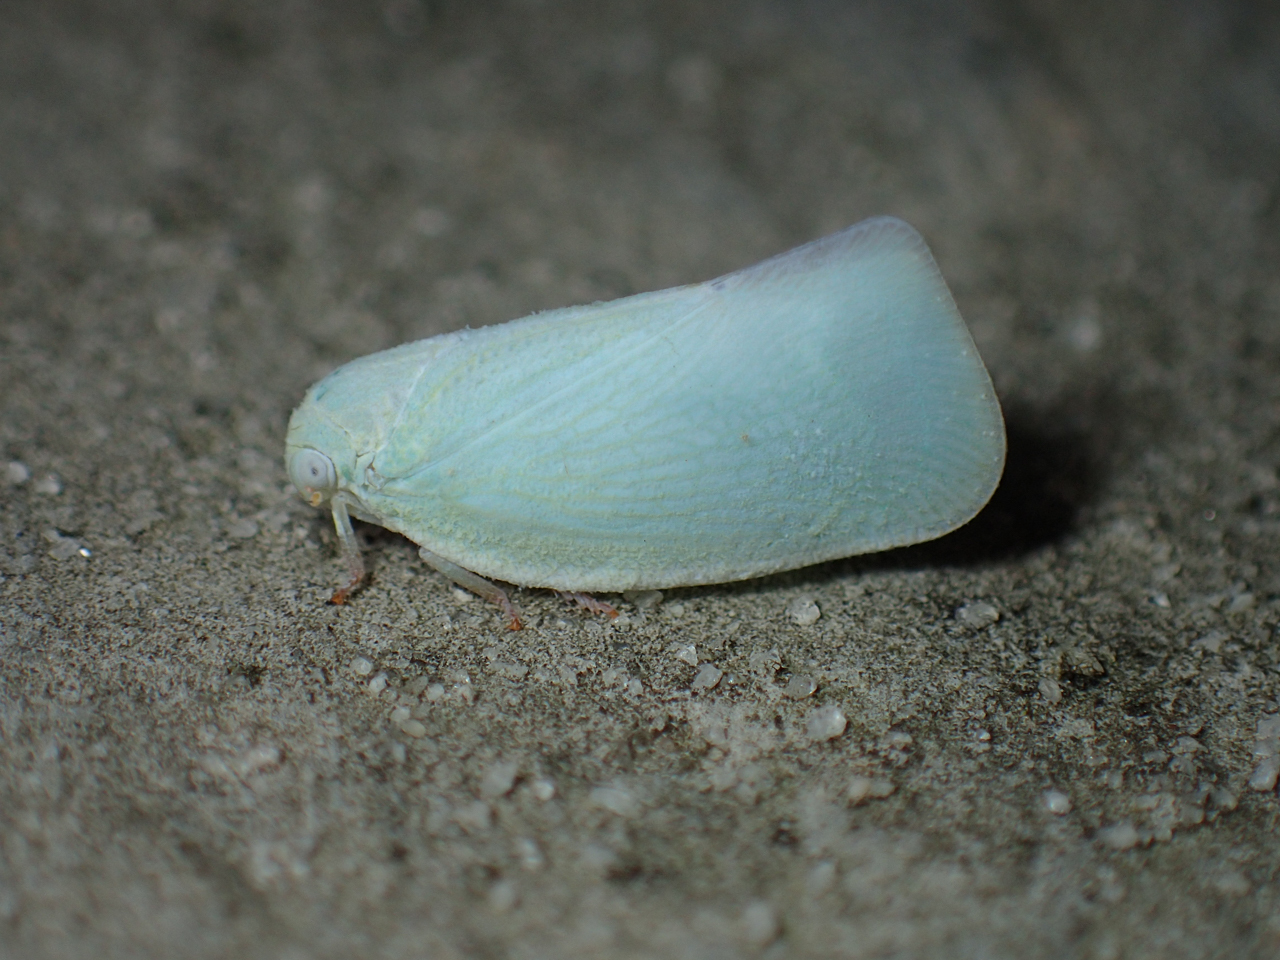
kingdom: Animalia
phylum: Arthropoda
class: Insecta
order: Hemiptera
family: Flatidae
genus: Flatormenis
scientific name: Flatormenis proxima
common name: Northern flatid planthopper
